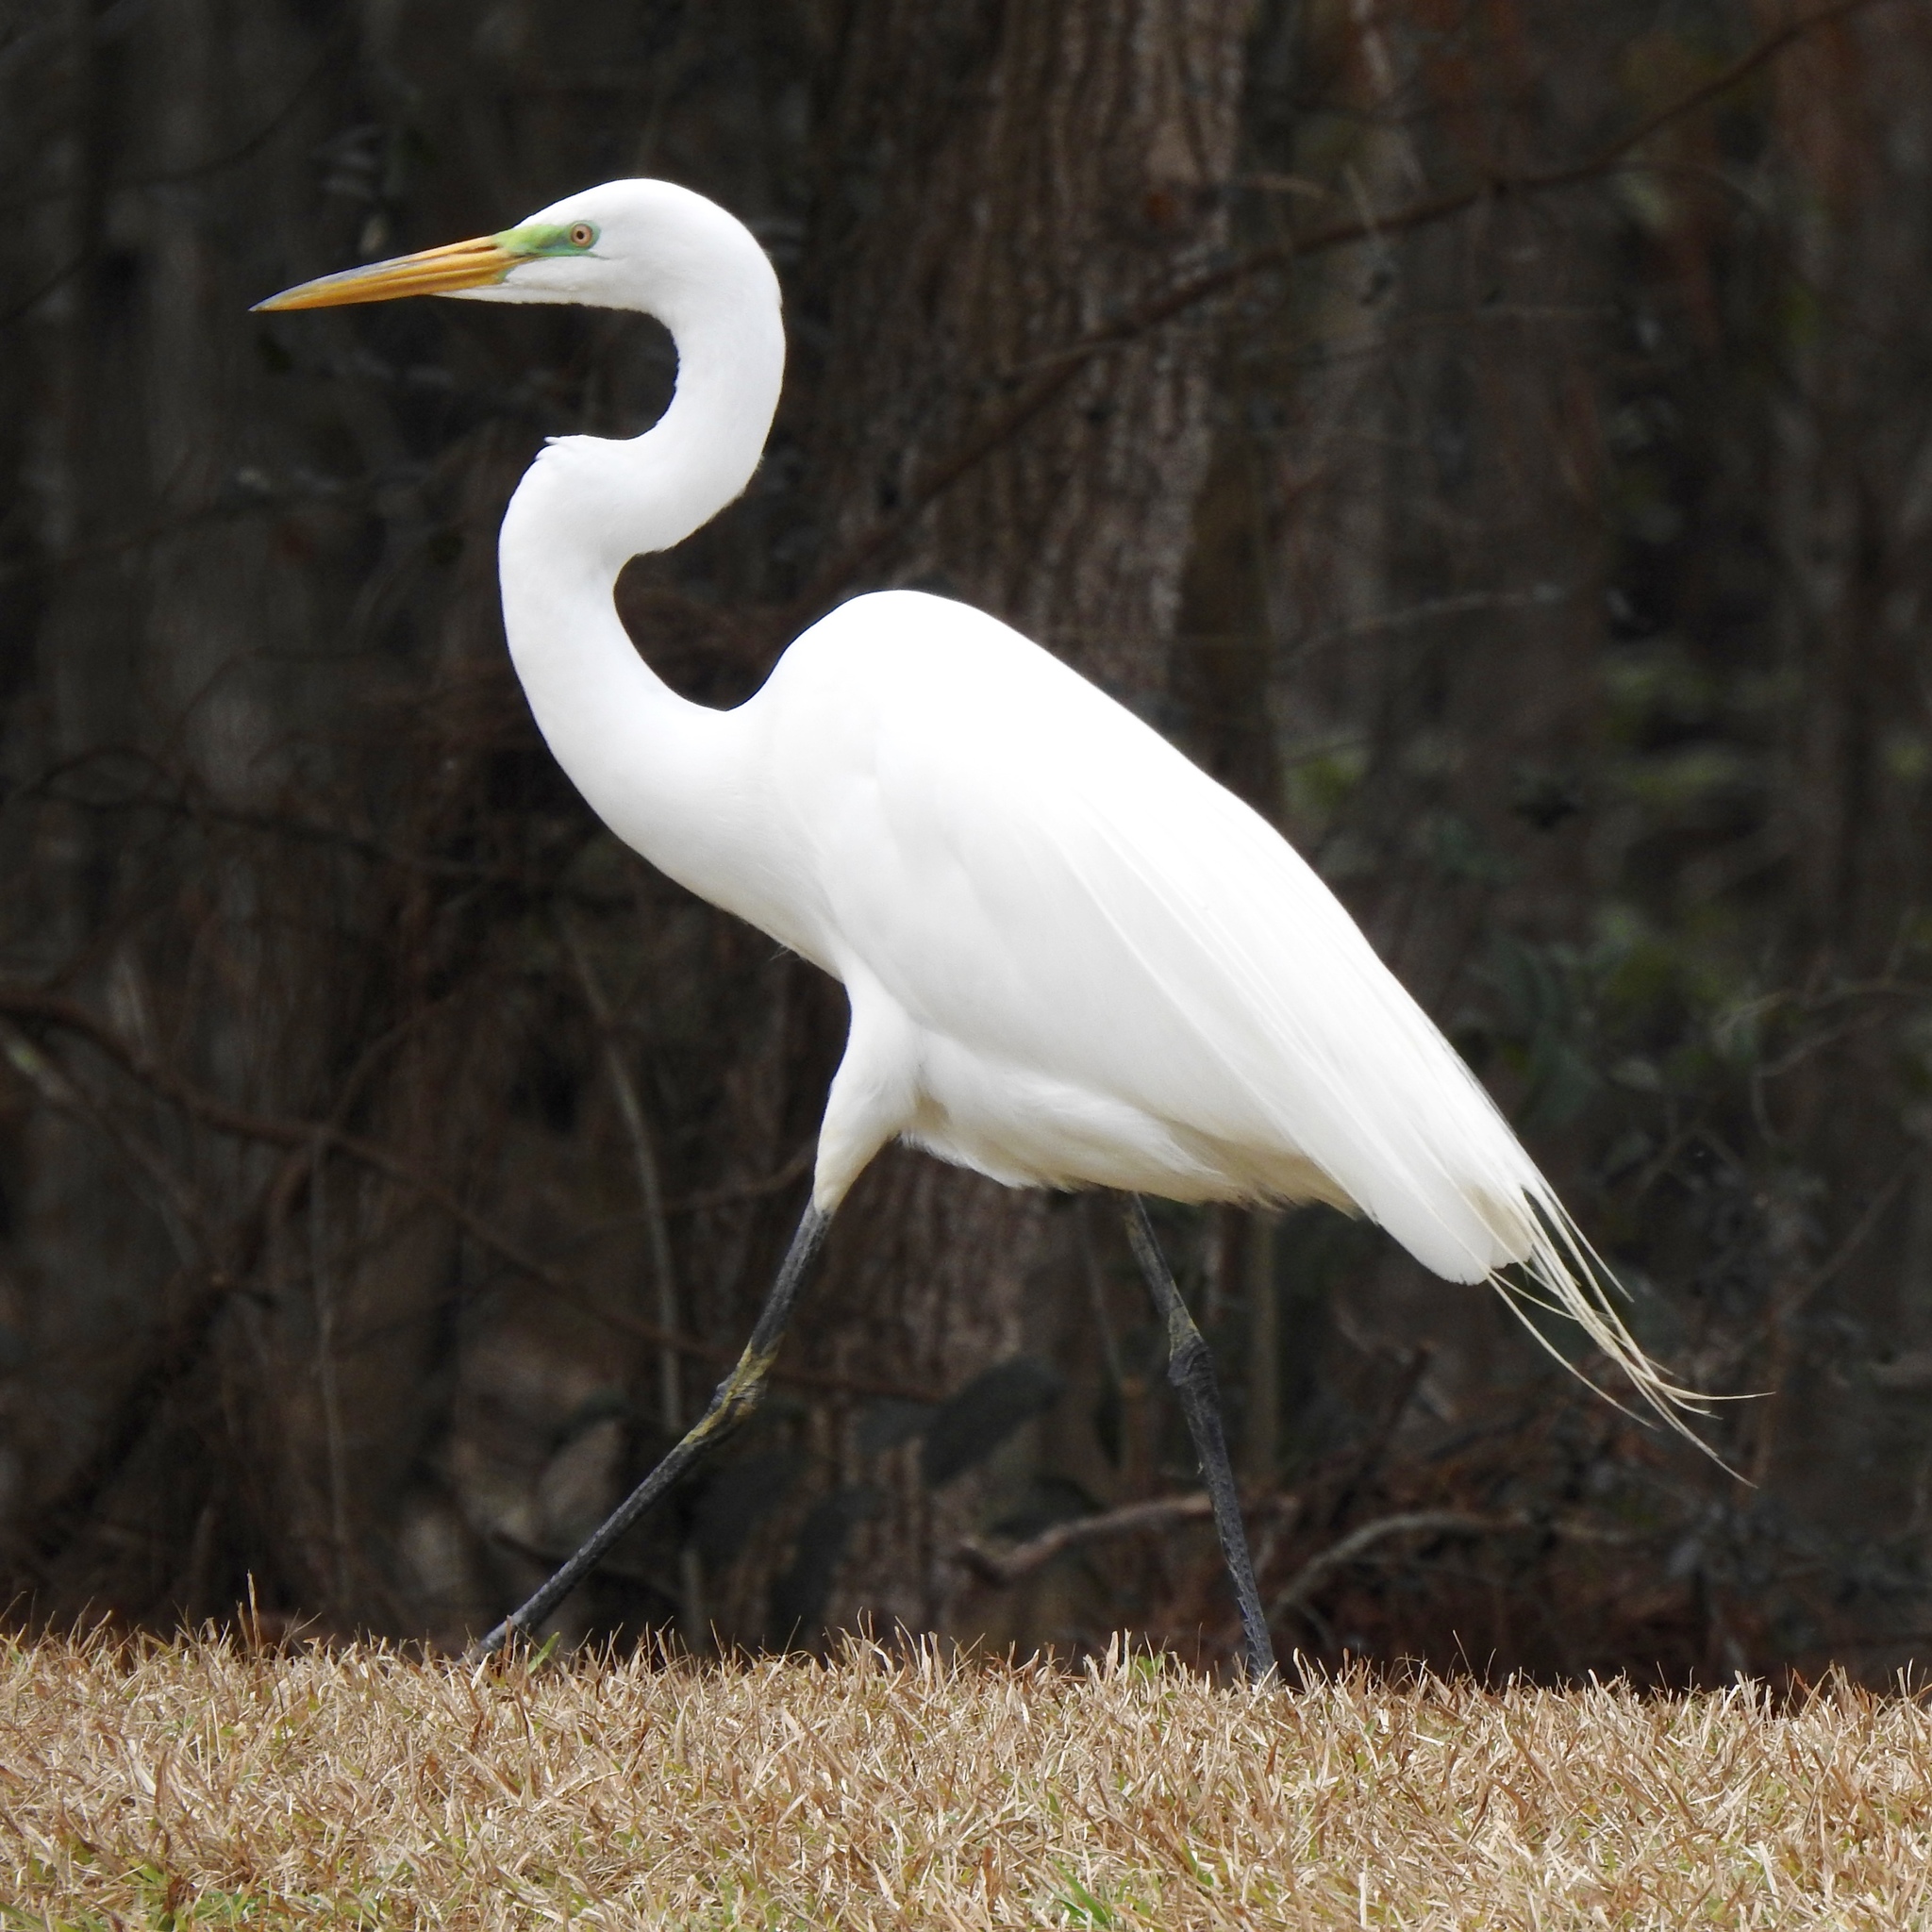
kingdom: Animalia
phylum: Chordata
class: Aves
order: Pelecaniformes
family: Ardeidae
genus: Ardea
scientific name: Ardea alba
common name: Great egret
